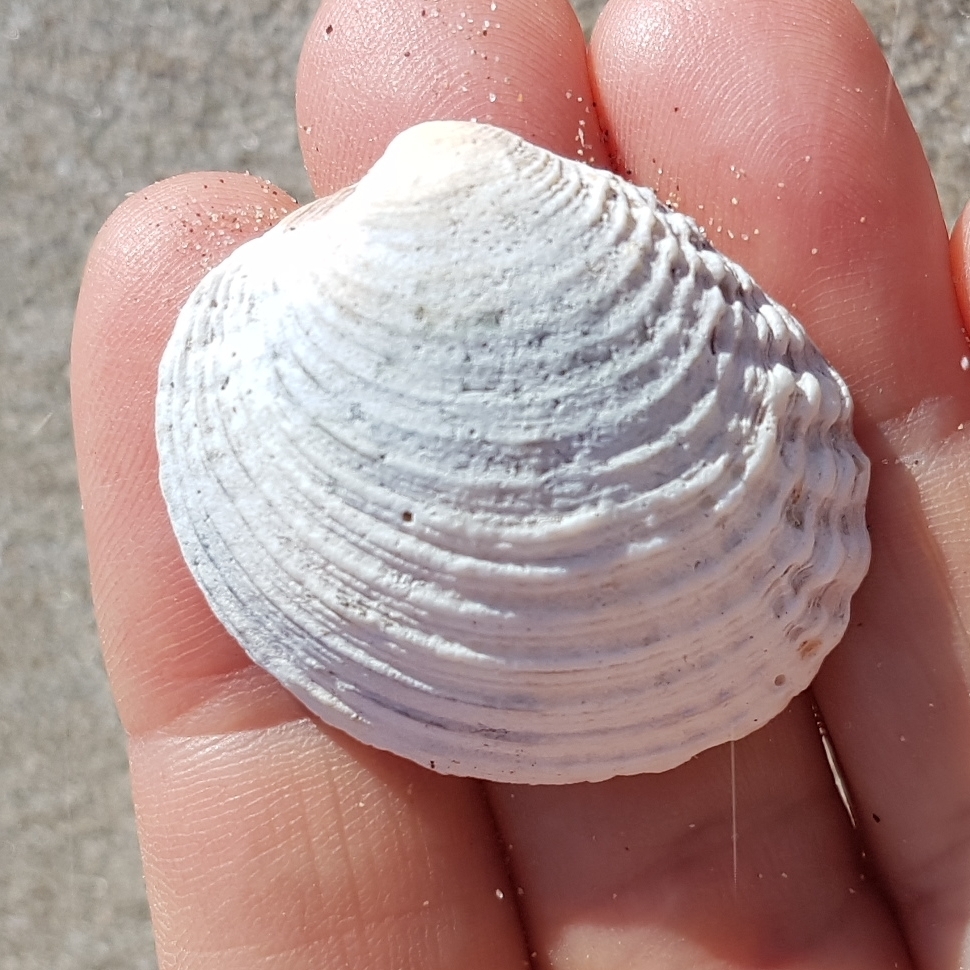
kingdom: Animalia
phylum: Mollusca
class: Bivalvia
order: Venerida
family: Veneridae
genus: Venus
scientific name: Venus verrucosa
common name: Warty venus
